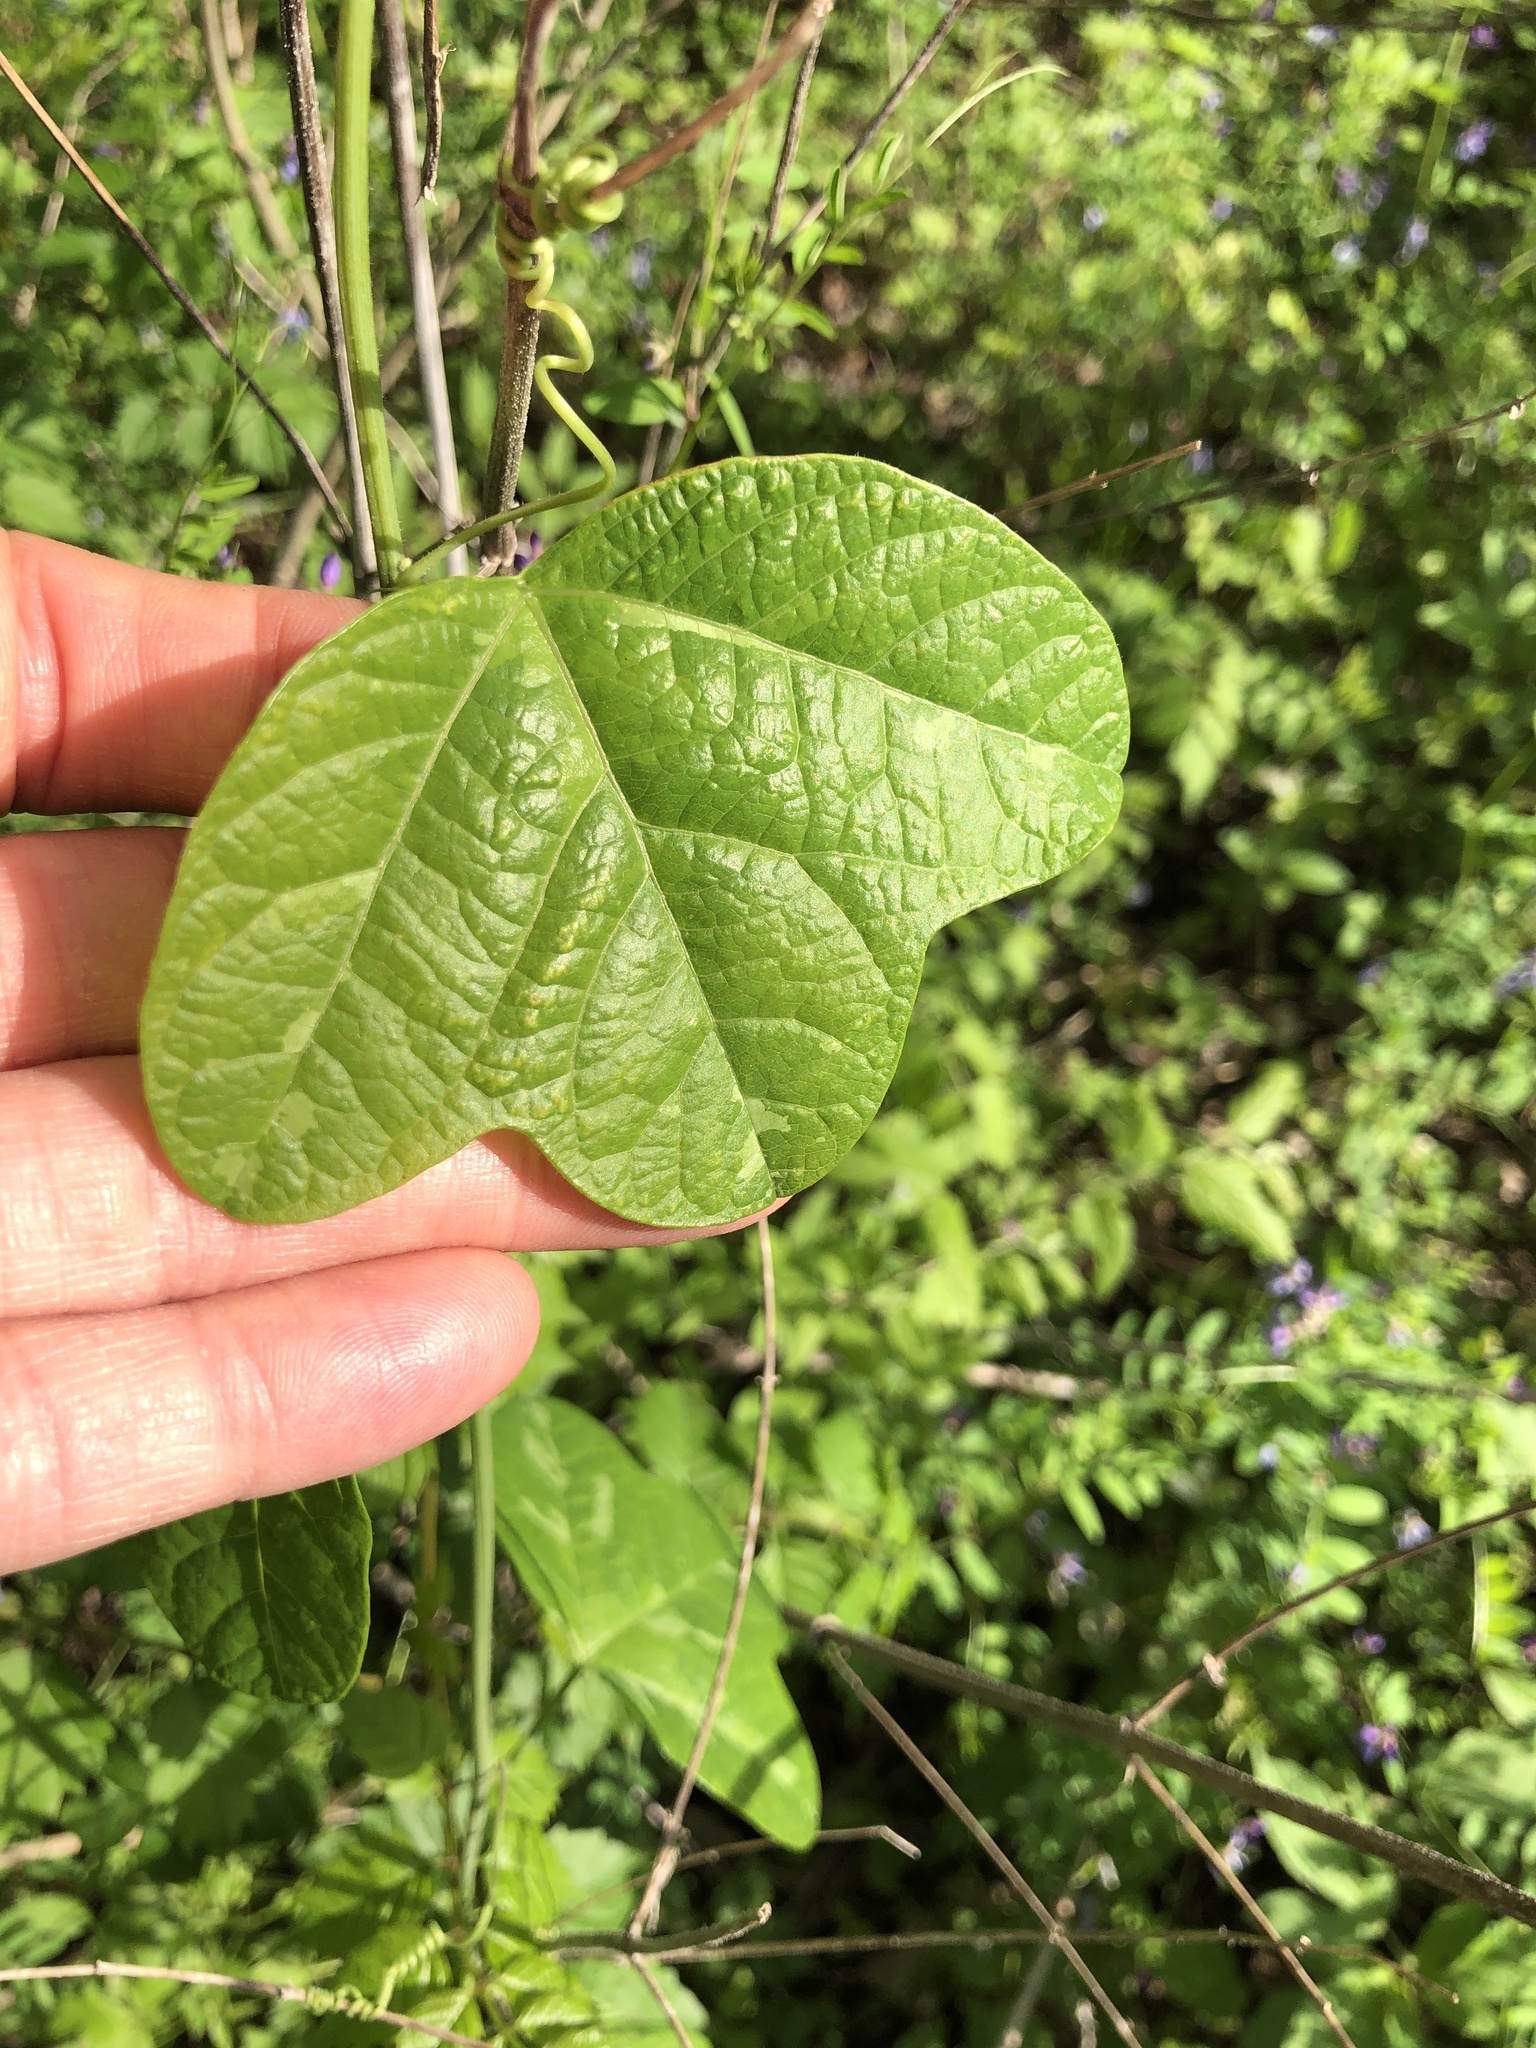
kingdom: Plantae
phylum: Tracheophyta
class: Magnoliopsida
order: Malpighiales
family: Passifloraceae
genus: Passiflora
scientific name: Passiflora lutea
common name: Yellow passionflower
